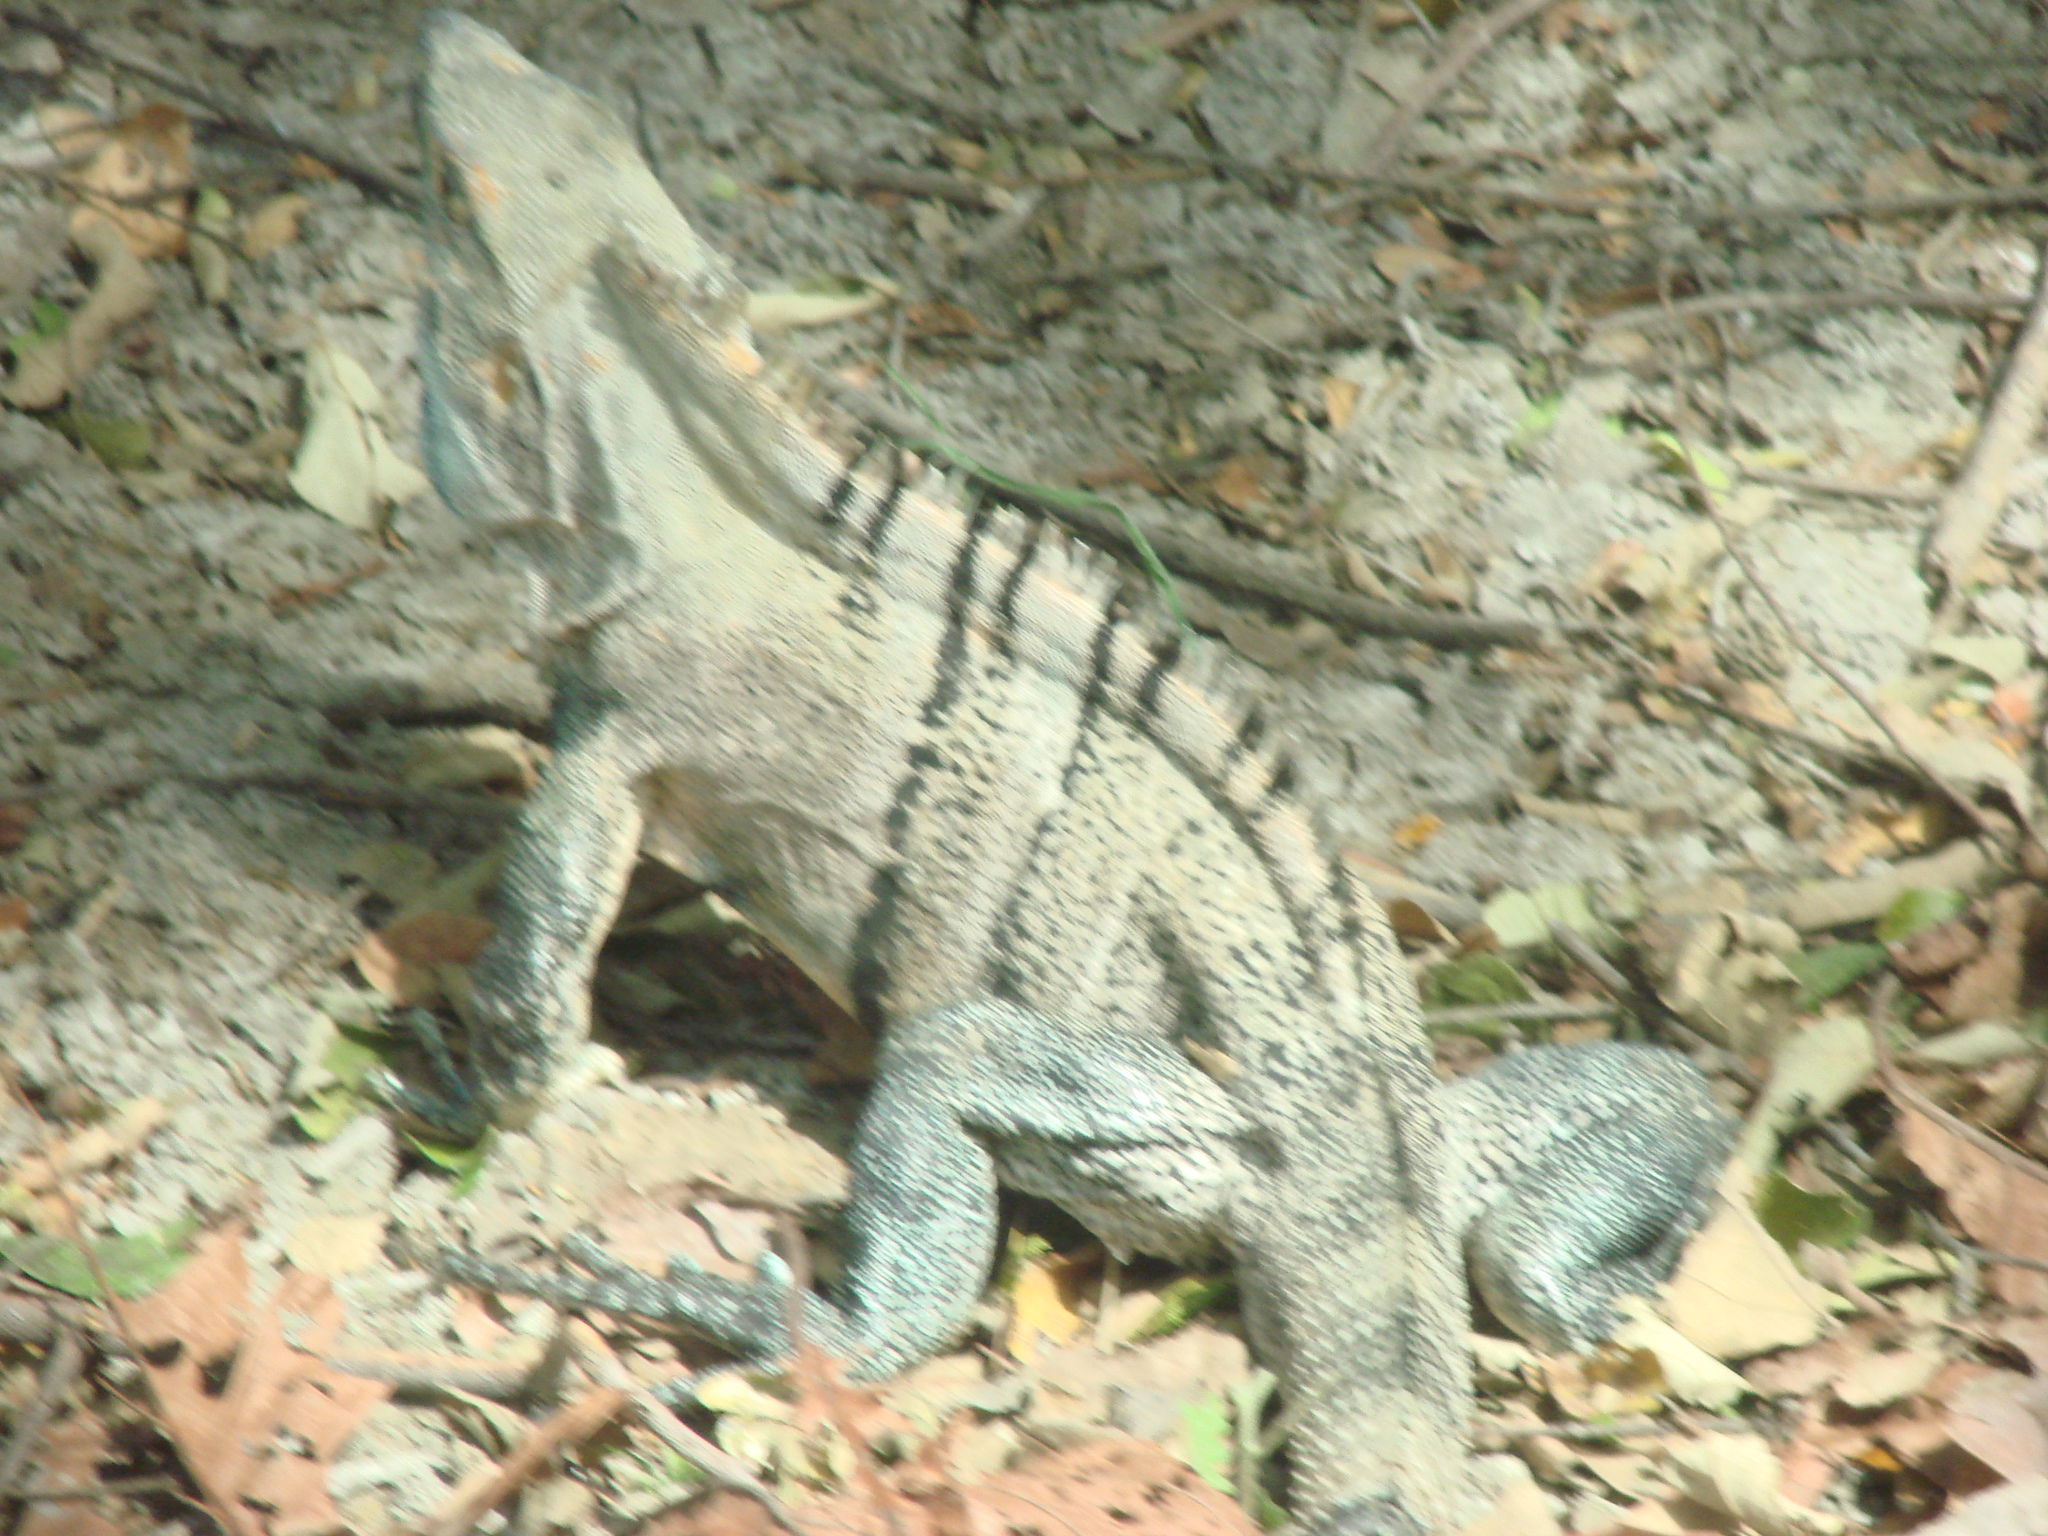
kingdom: Animalia
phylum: Chordata
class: Squamata
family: Iguanidae
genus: Ctenosaura
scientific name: Ctenosaura similis
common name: Black spiny-tailed iguana
